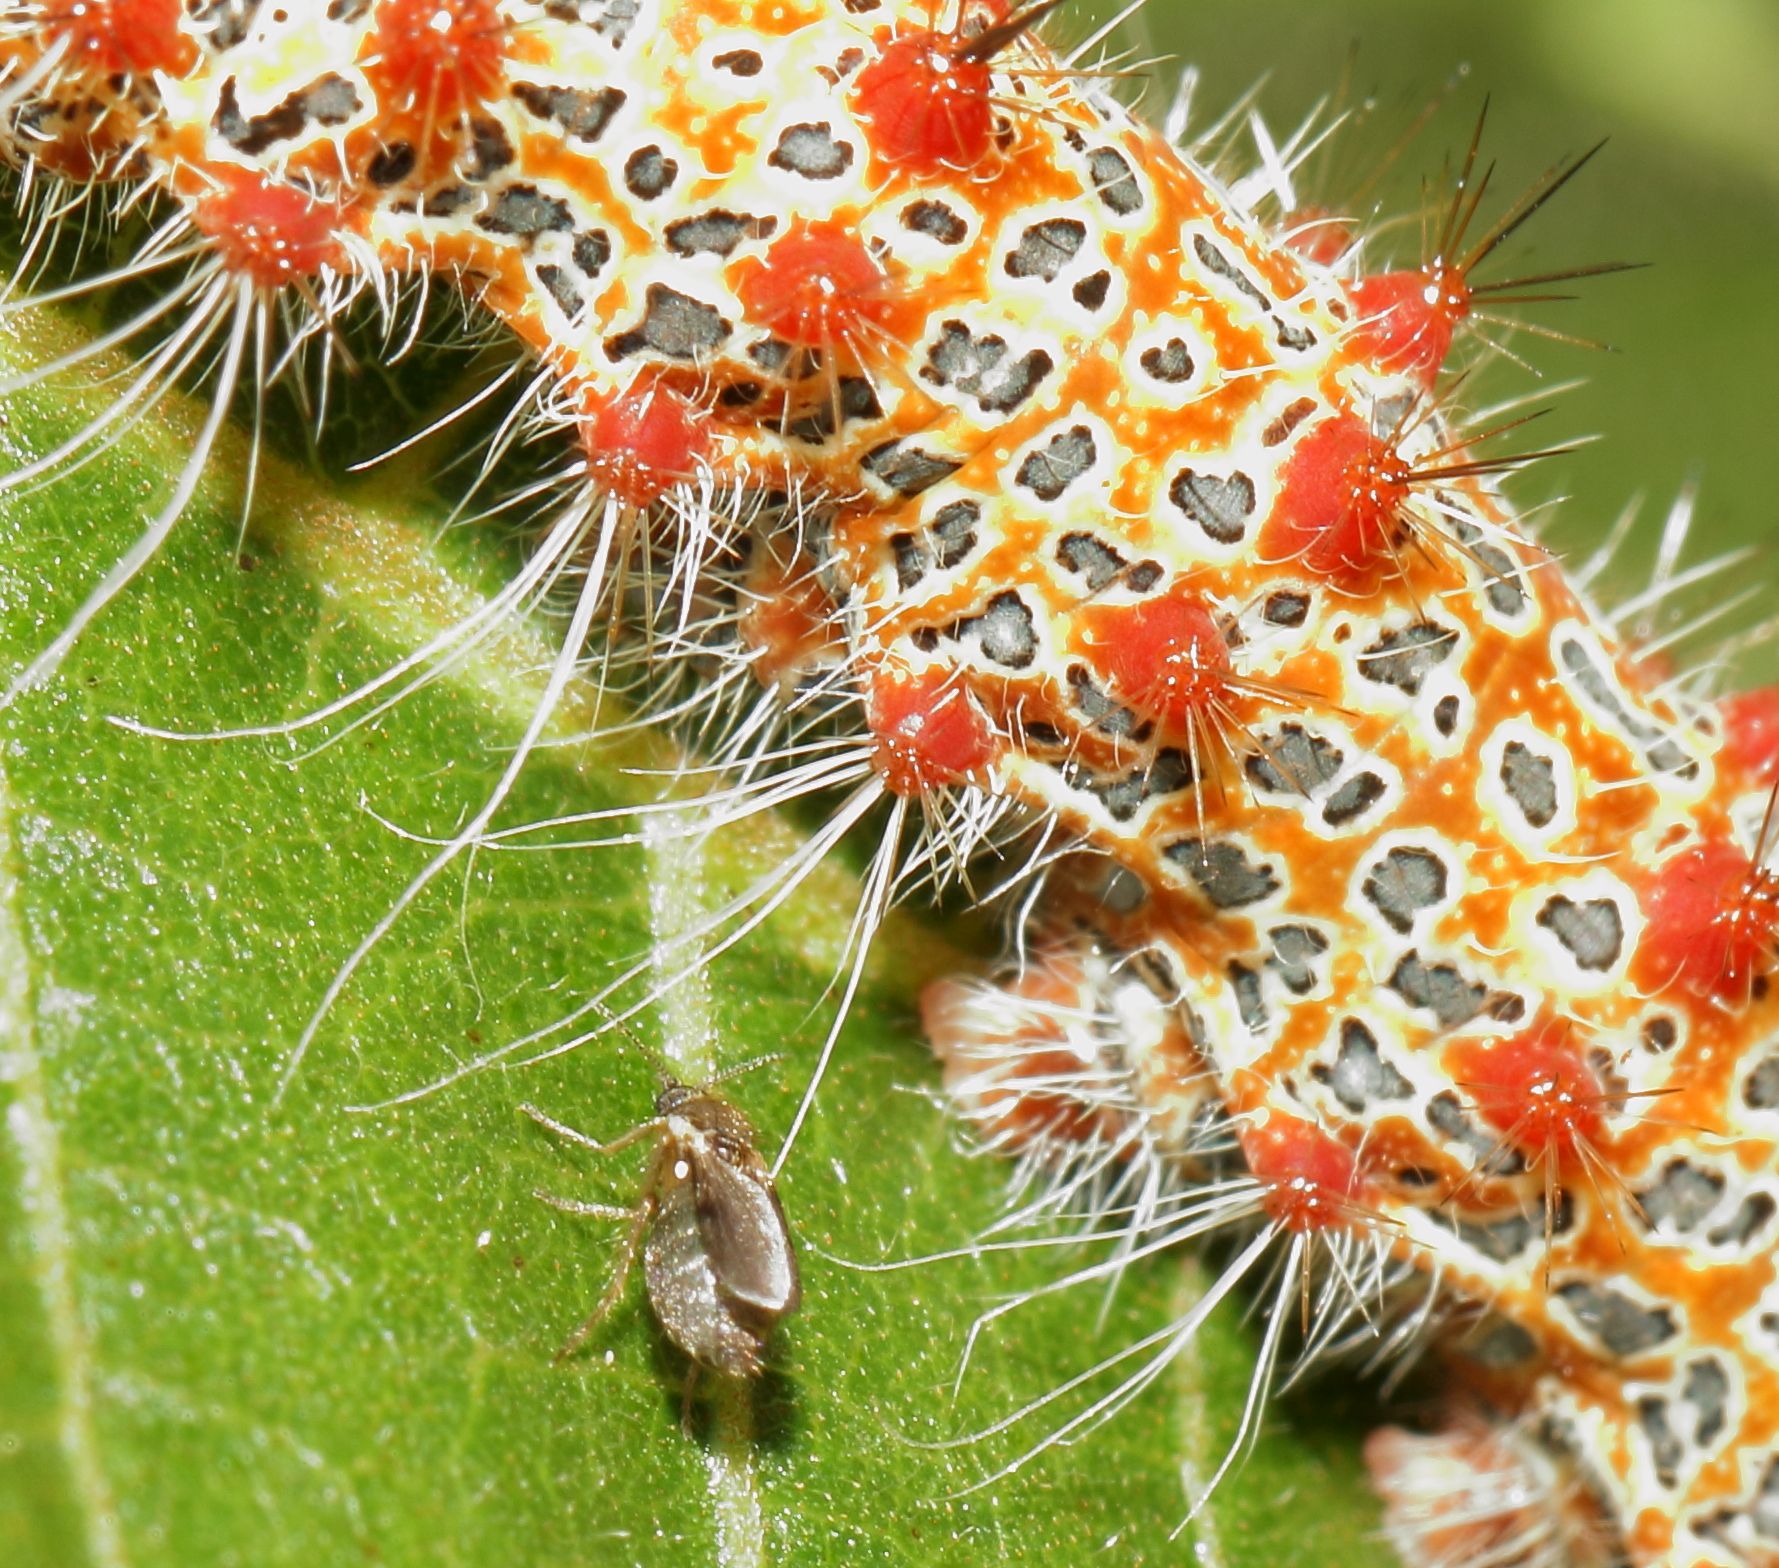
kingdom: Animalia
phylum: Arthropoda
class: Insecta
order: Lepidoptera
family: Saturniidae
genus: Holocerina
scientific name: Holocerina smilax
